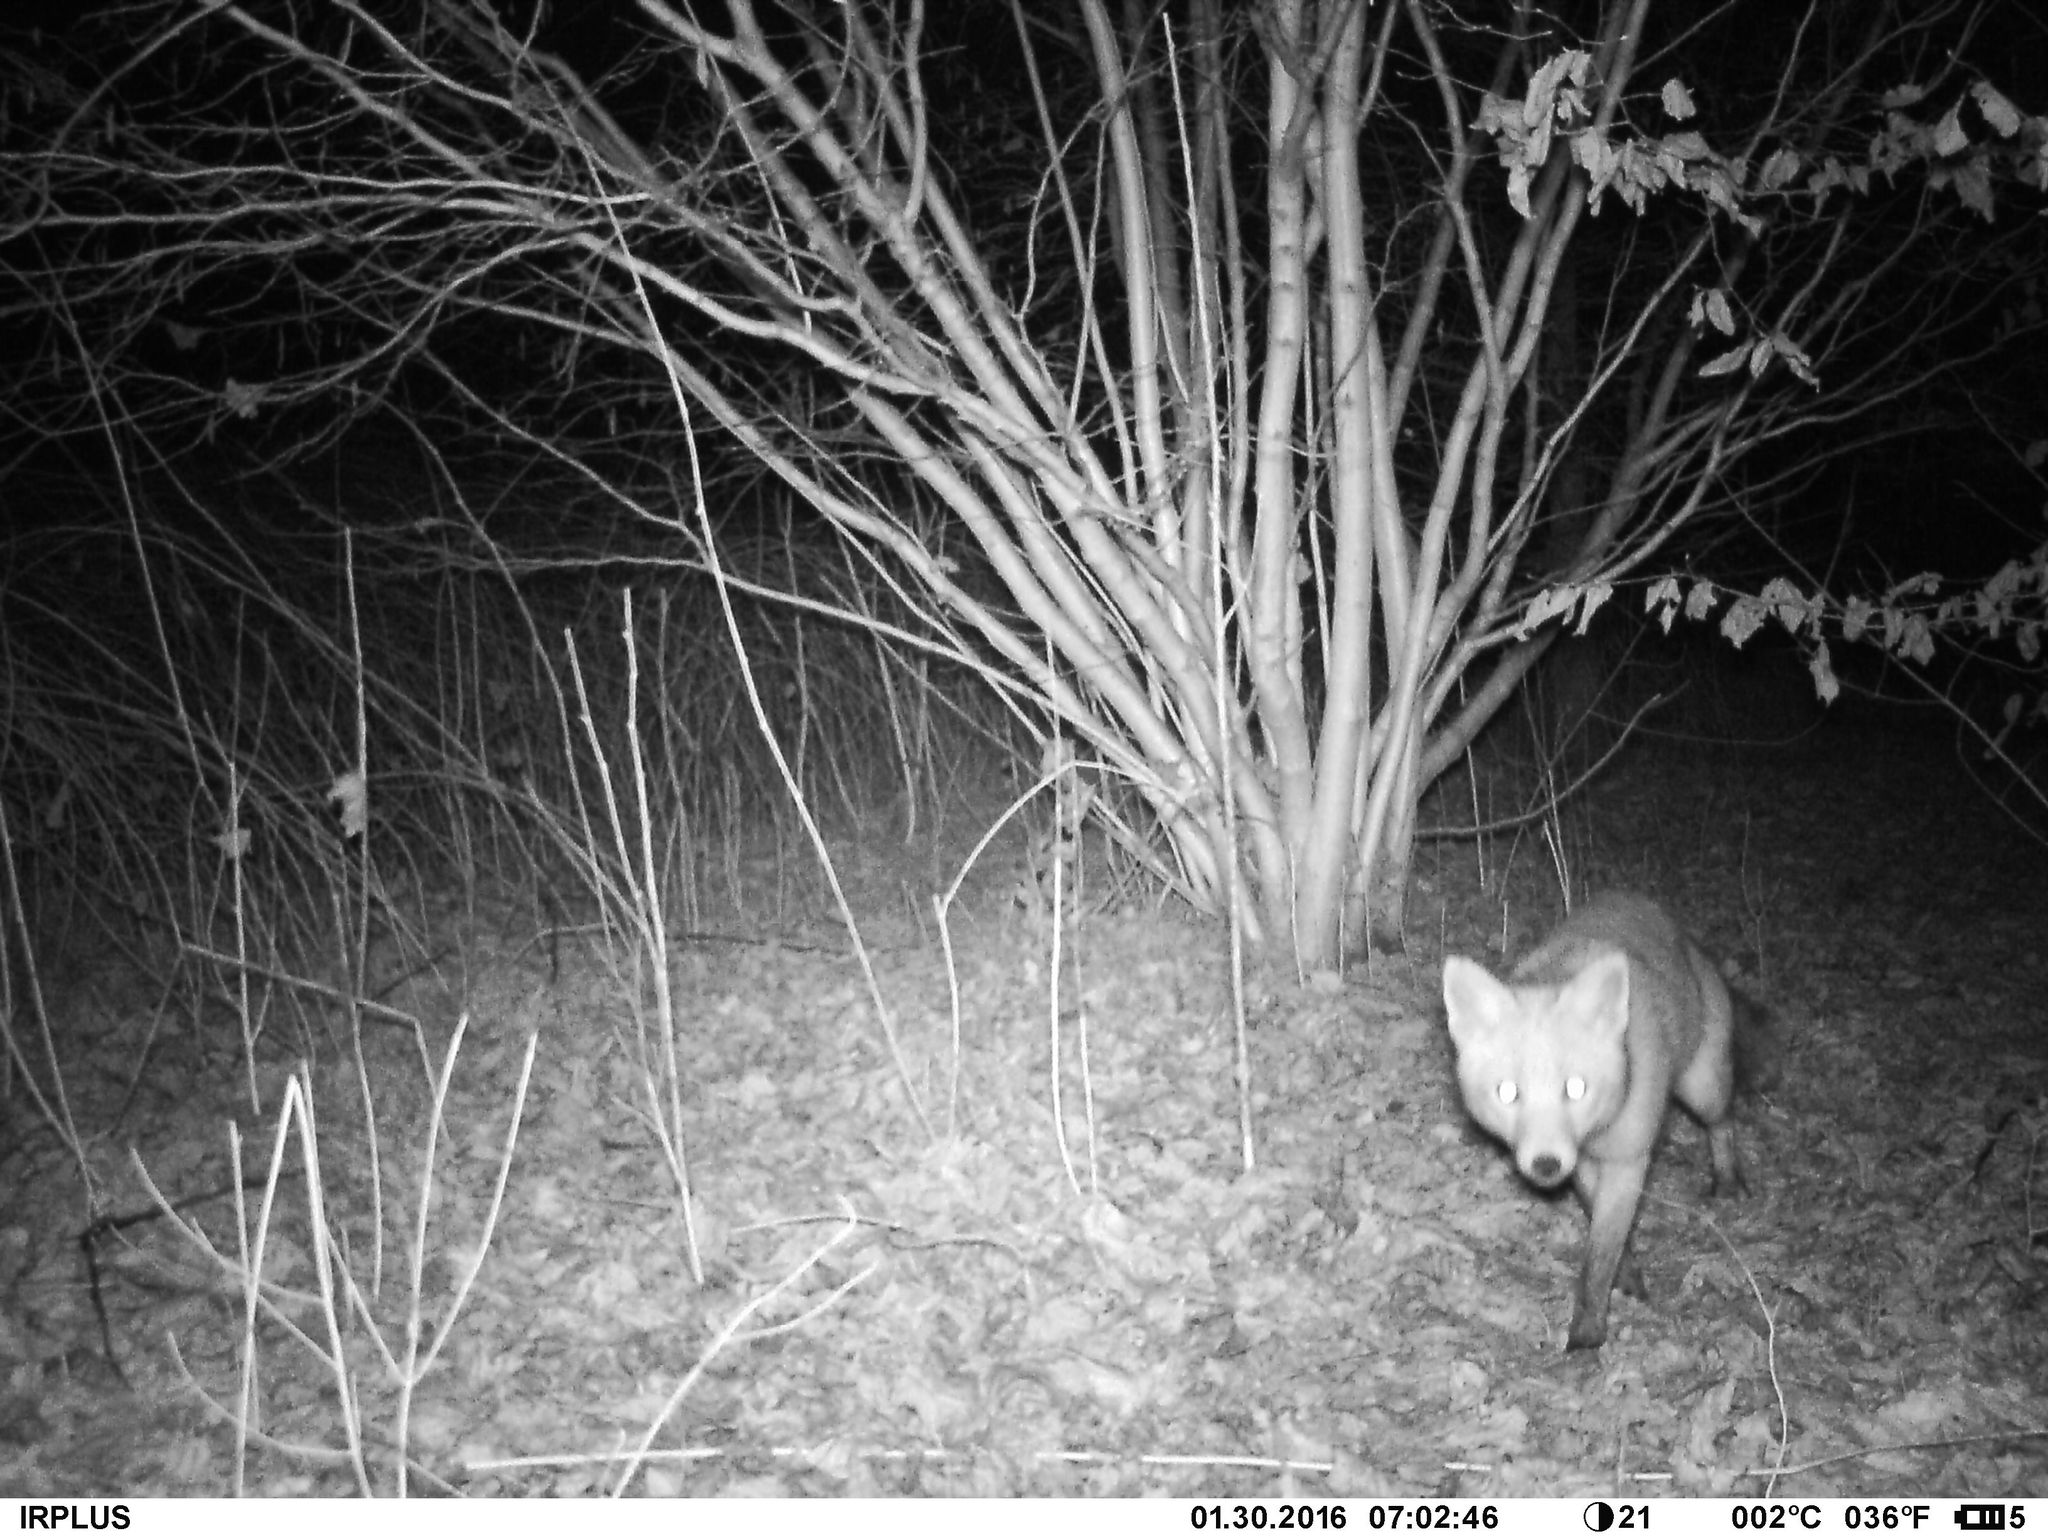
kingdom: Animalia
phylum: Chordata
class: Mammalia
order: Carnivora
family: Canidae
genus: Vulpes
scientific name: Vulpes vulpes
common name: Red fox
